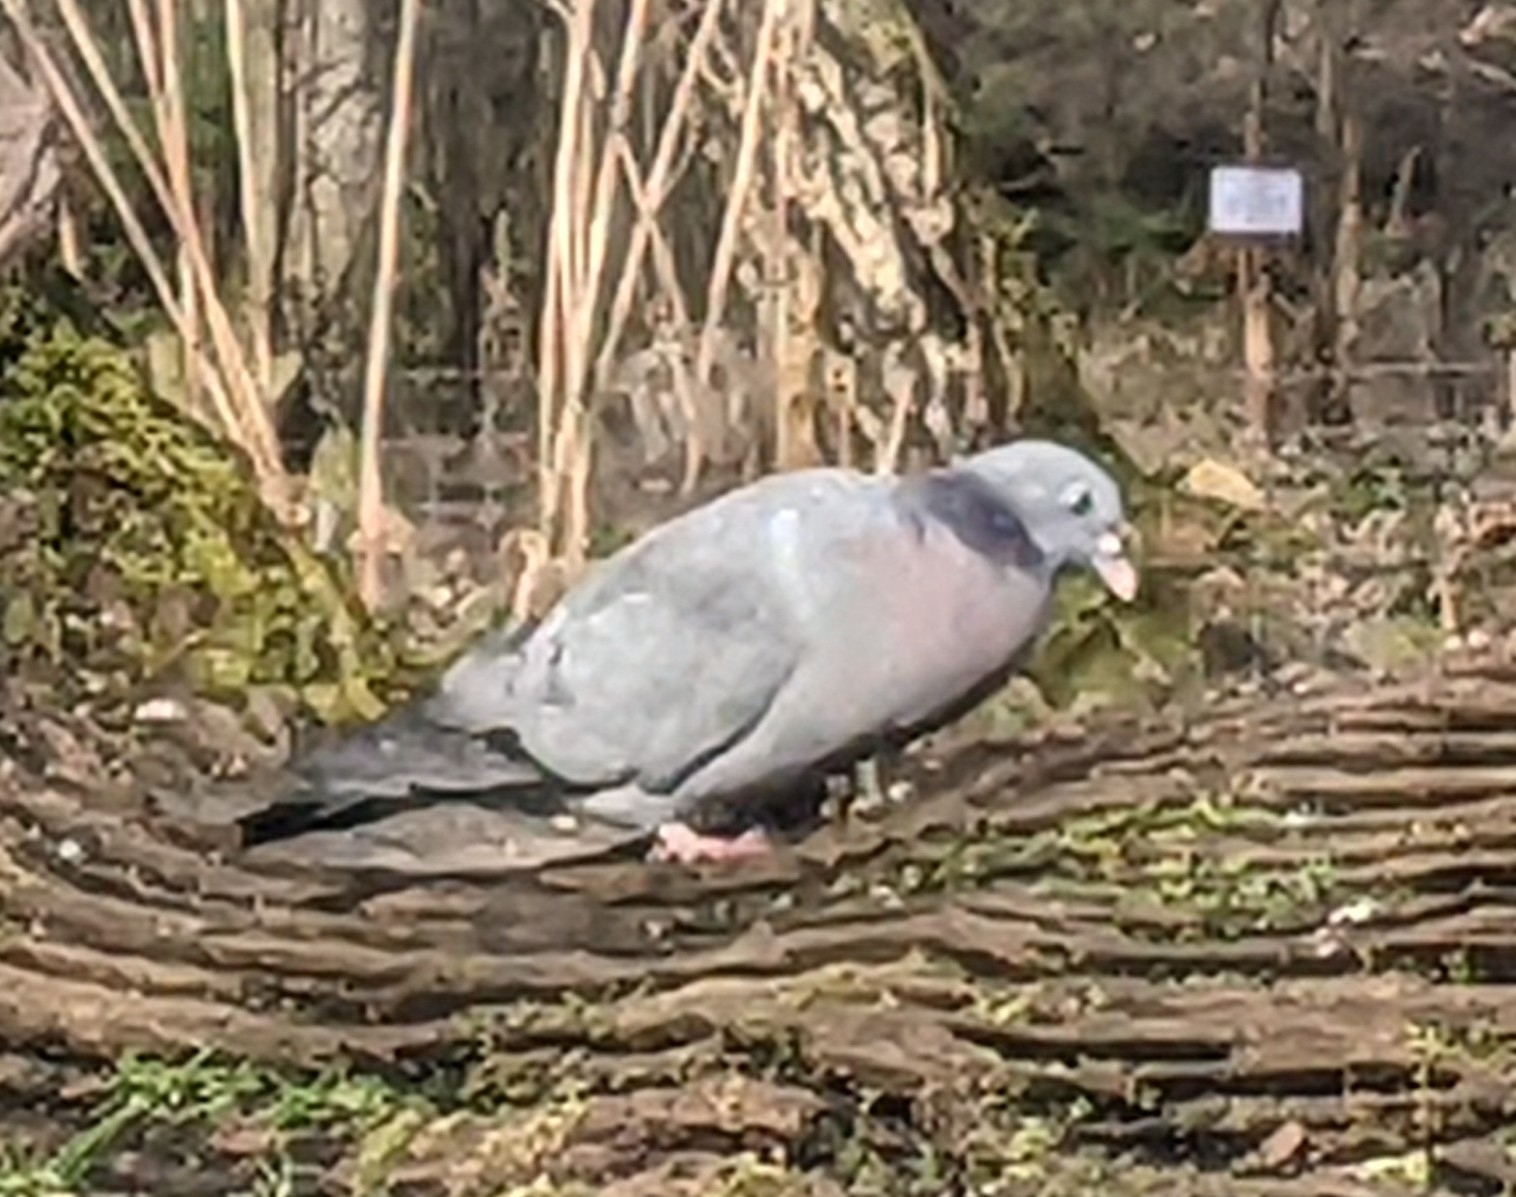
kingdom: Animalia
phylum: Chordata
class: Aves
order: Columbiformes
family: Columbidae
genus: Columba
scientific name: Columba oenas
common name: Stock dove
